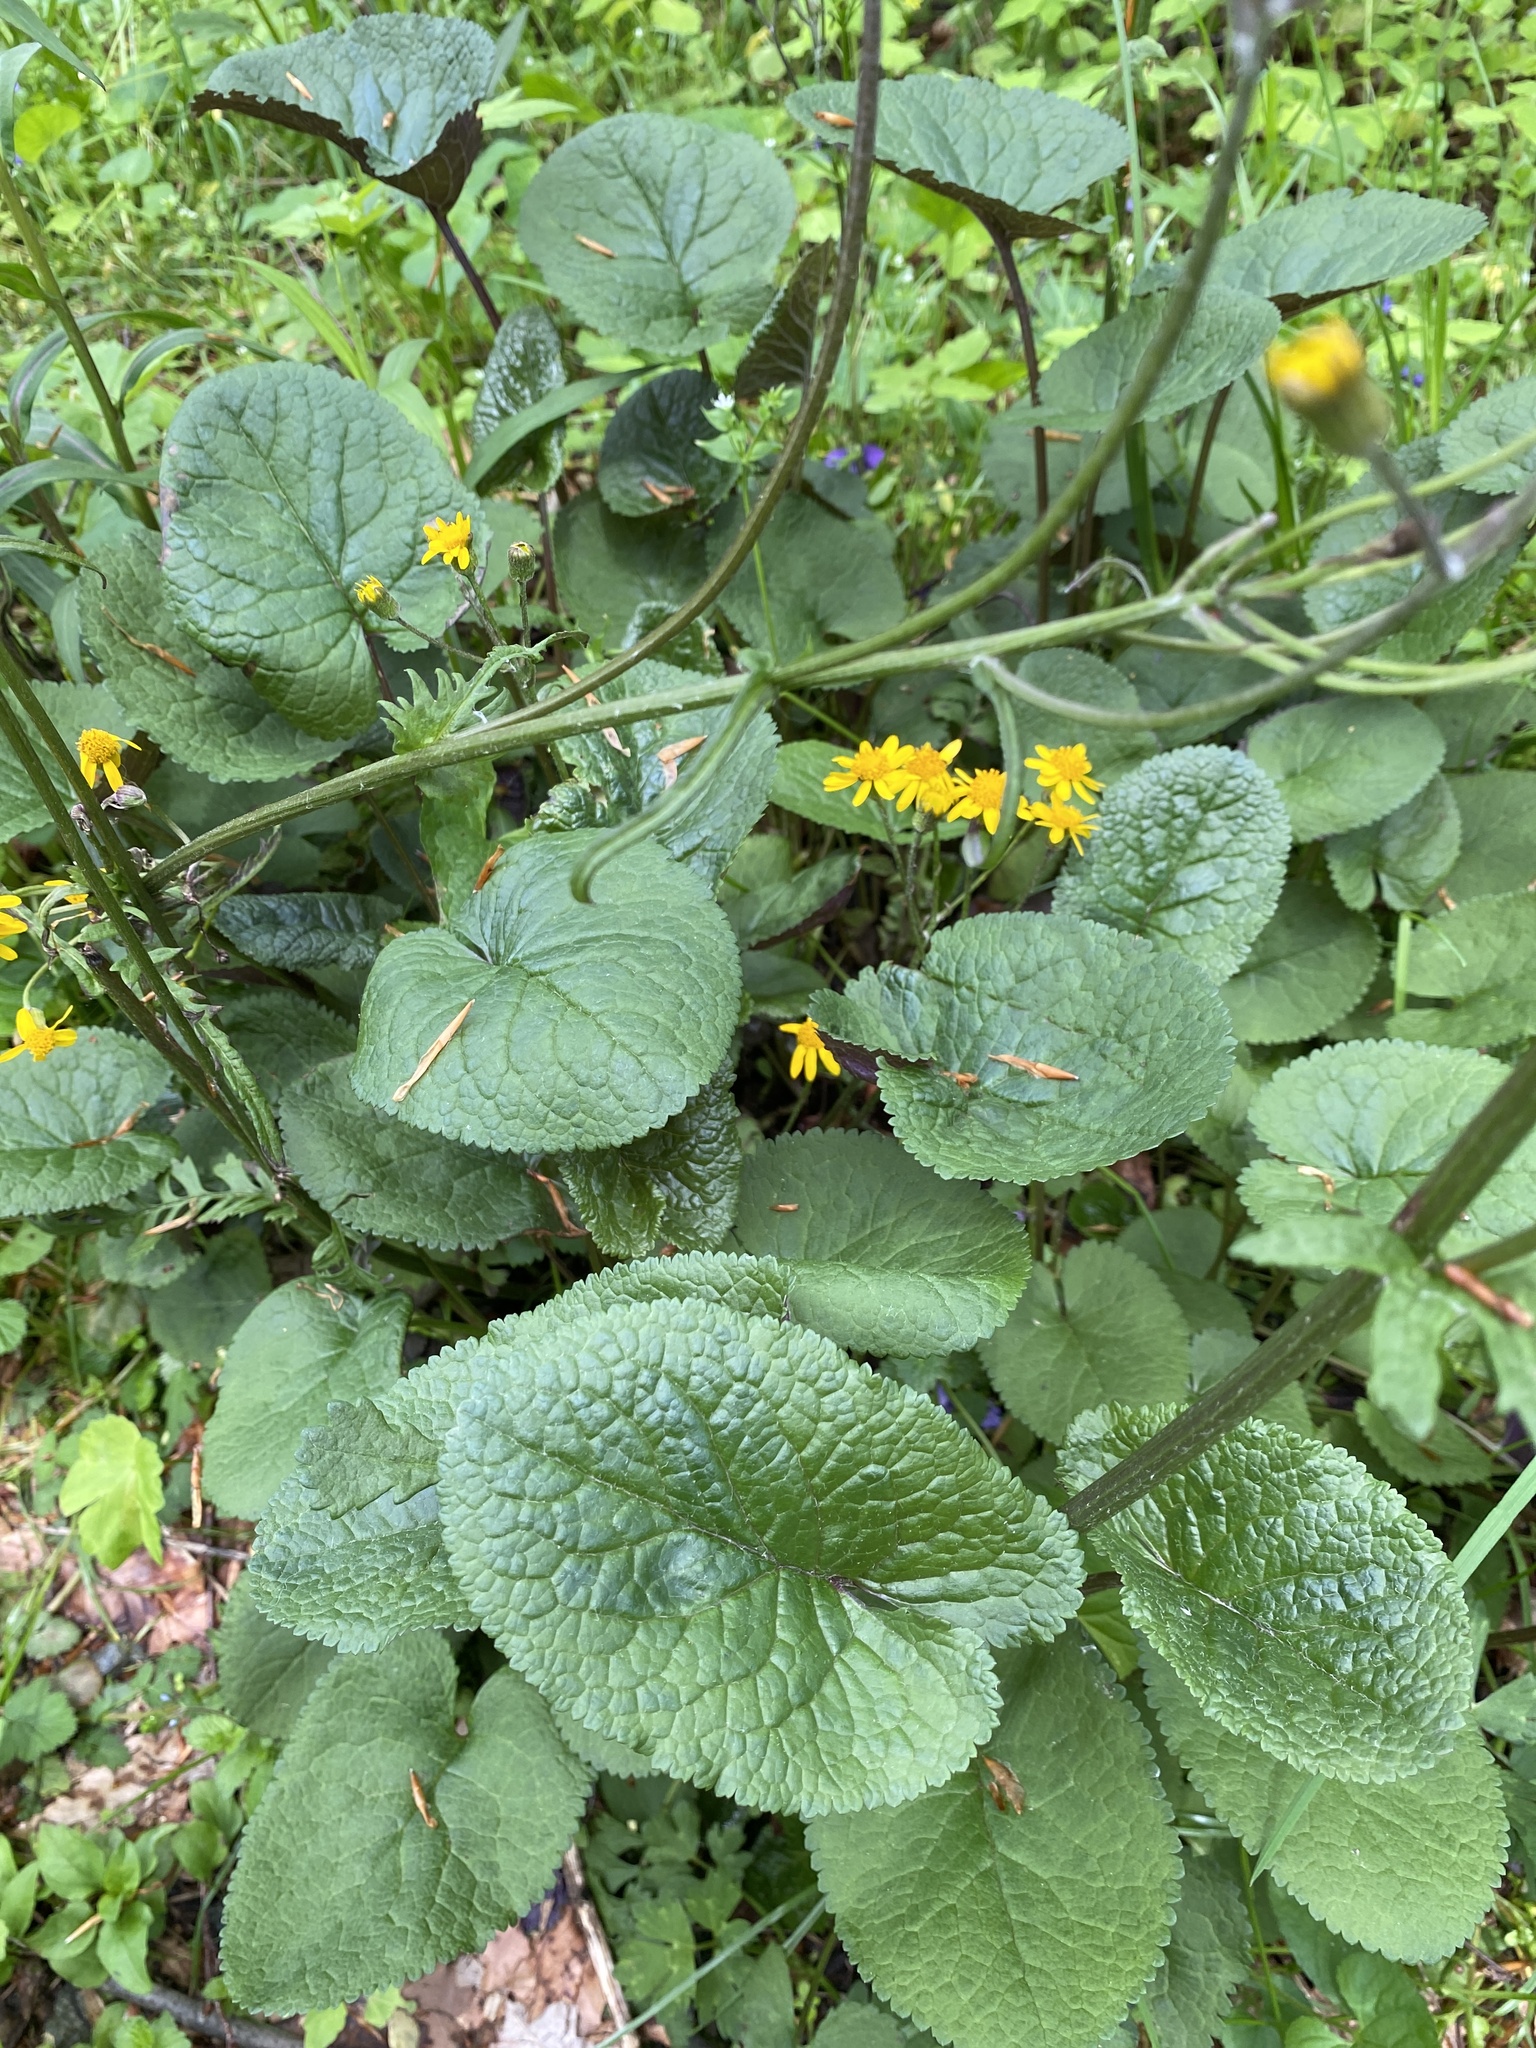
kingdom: Plantae
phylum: Tracheophyta
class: Magnoliopsida
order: Asterales
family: Asteraceae
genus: Packera
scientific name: Packera aurea
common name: Golden groundsel
